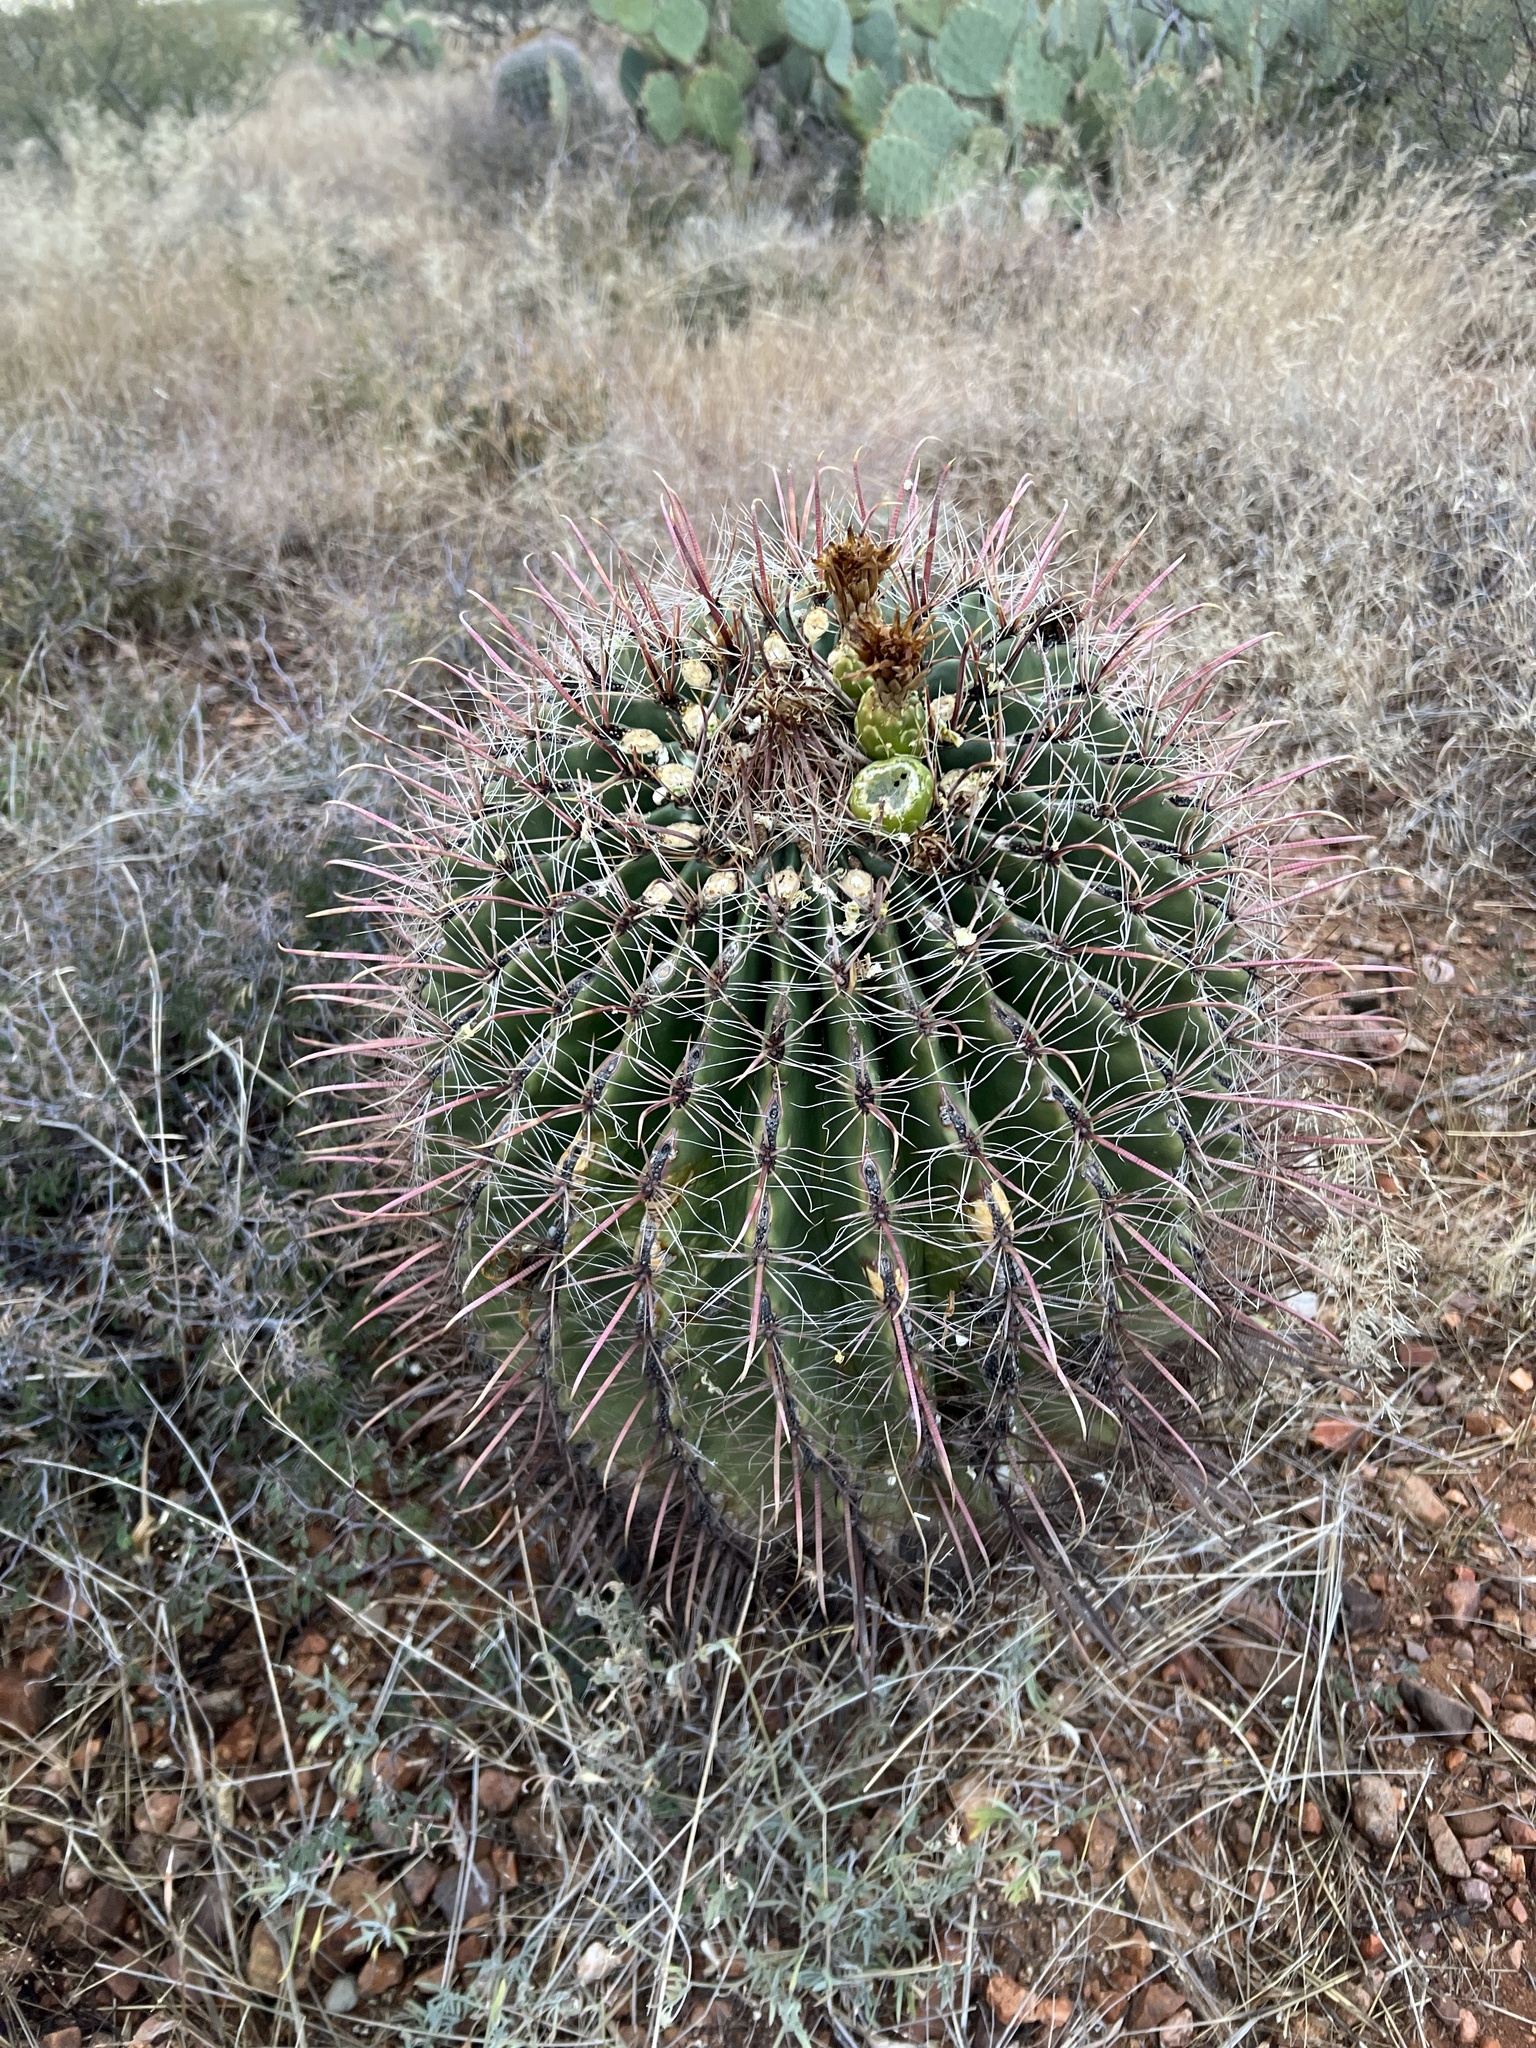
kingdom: Plantae
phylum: Tracheophyta
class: Magnoliopsida
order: Caryophyllales
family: Cactaceae
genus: Ferocactus
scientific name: Ferocactus wislizeni
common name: Candy barrel cactus
